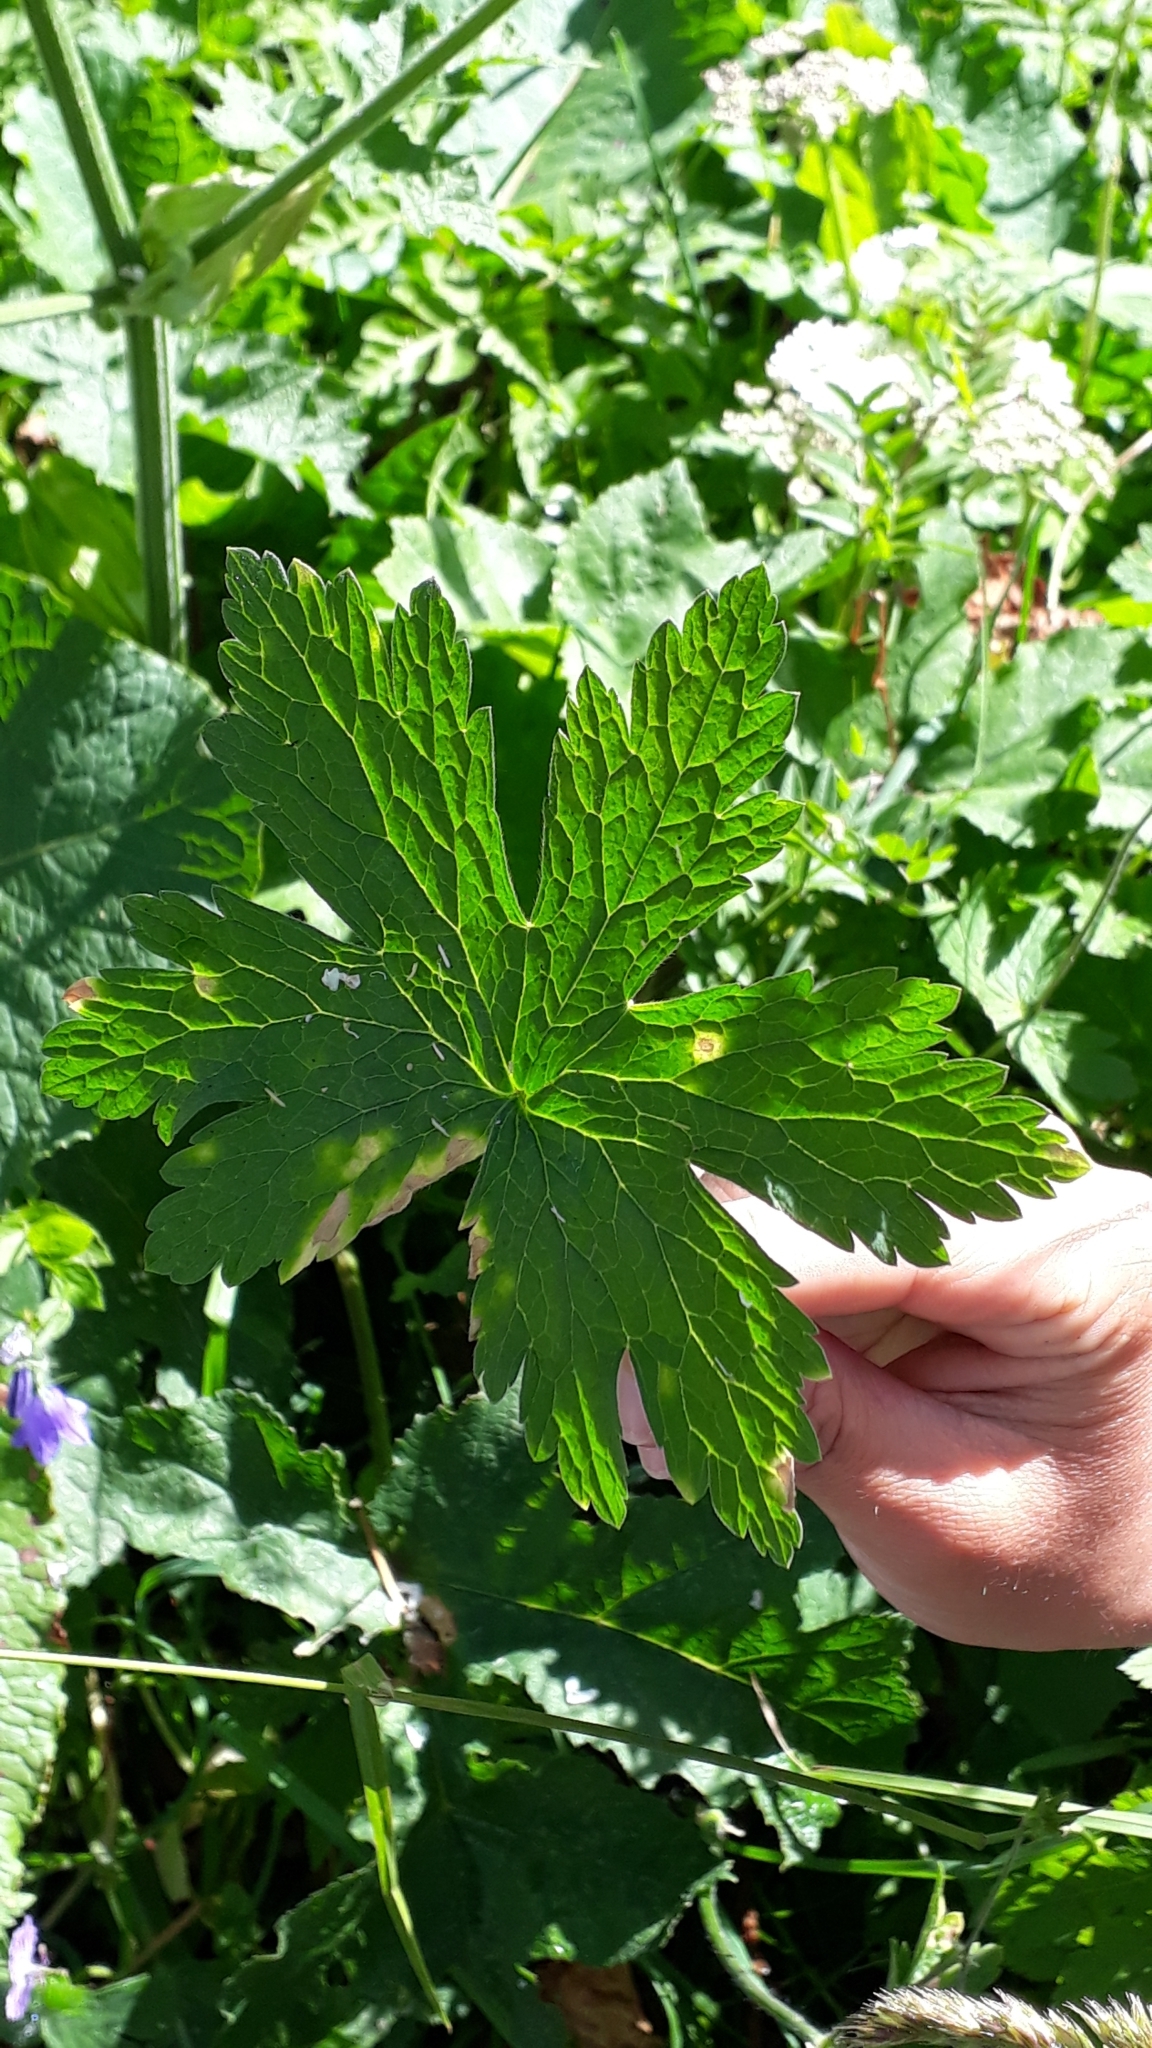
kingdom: Plantae
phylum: Tracheophyta
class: Magnoliopsida
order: Geraniales
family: Geraniaceae
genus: Geranium
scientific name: Geranium phaeum
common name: Dusky crane's-bill
